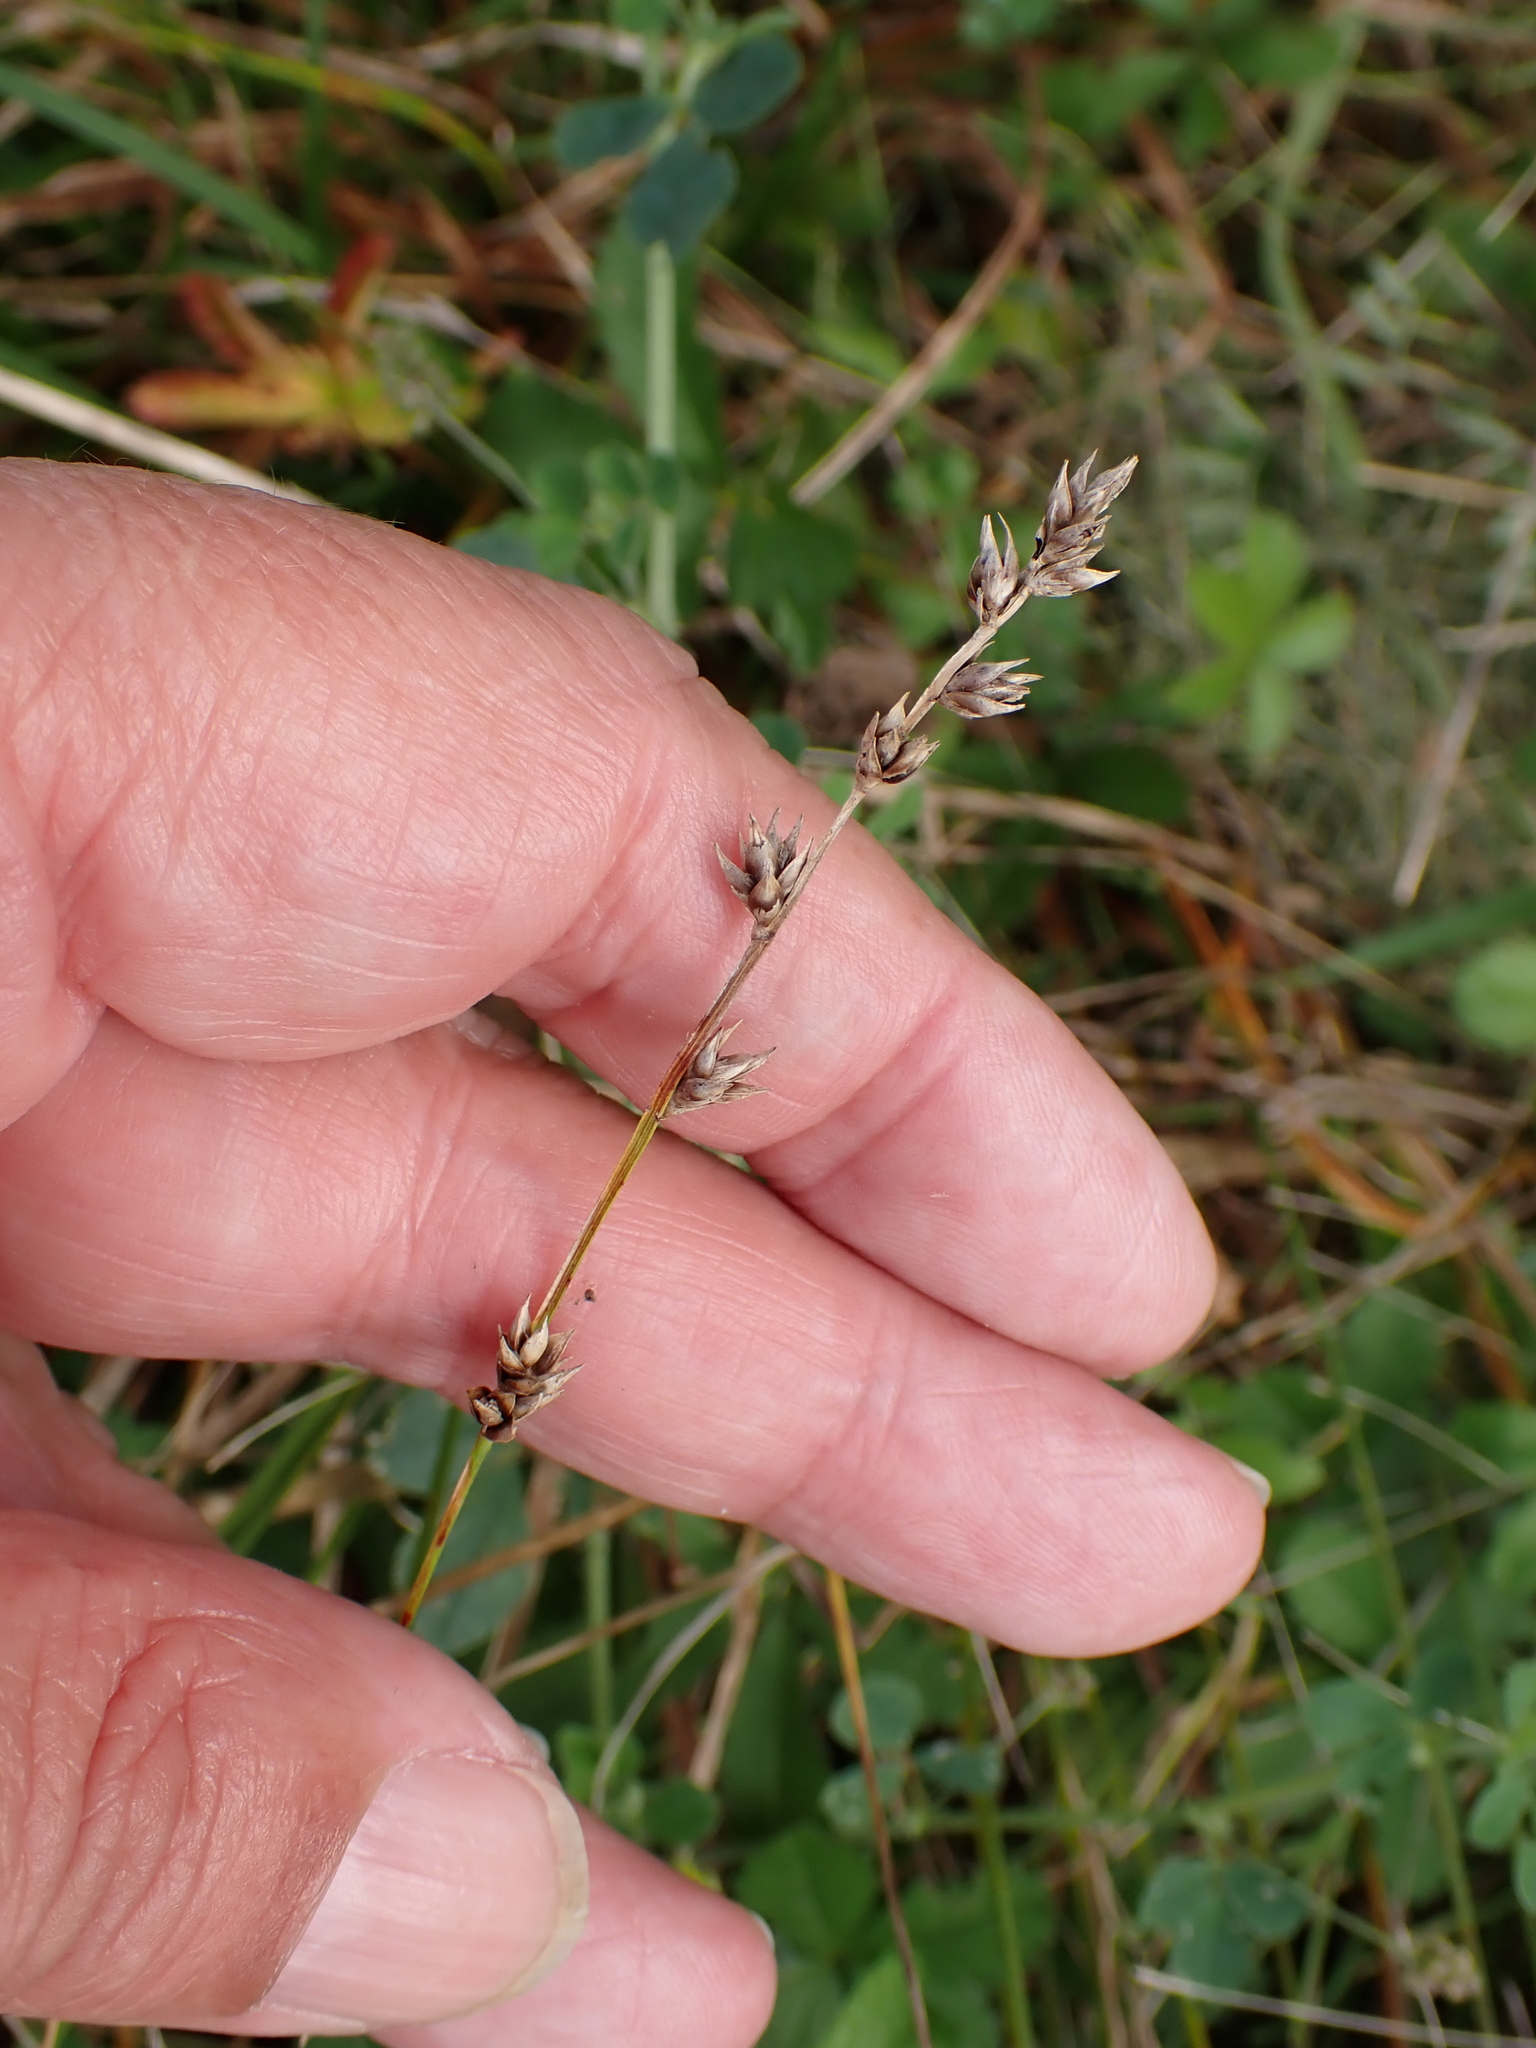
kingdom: Plantae
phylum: Tracheophyta
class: Liliopsida
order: Poales
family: Cyperaceae
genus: Carex
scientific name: Carex divulsa
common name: Grassland sedge
